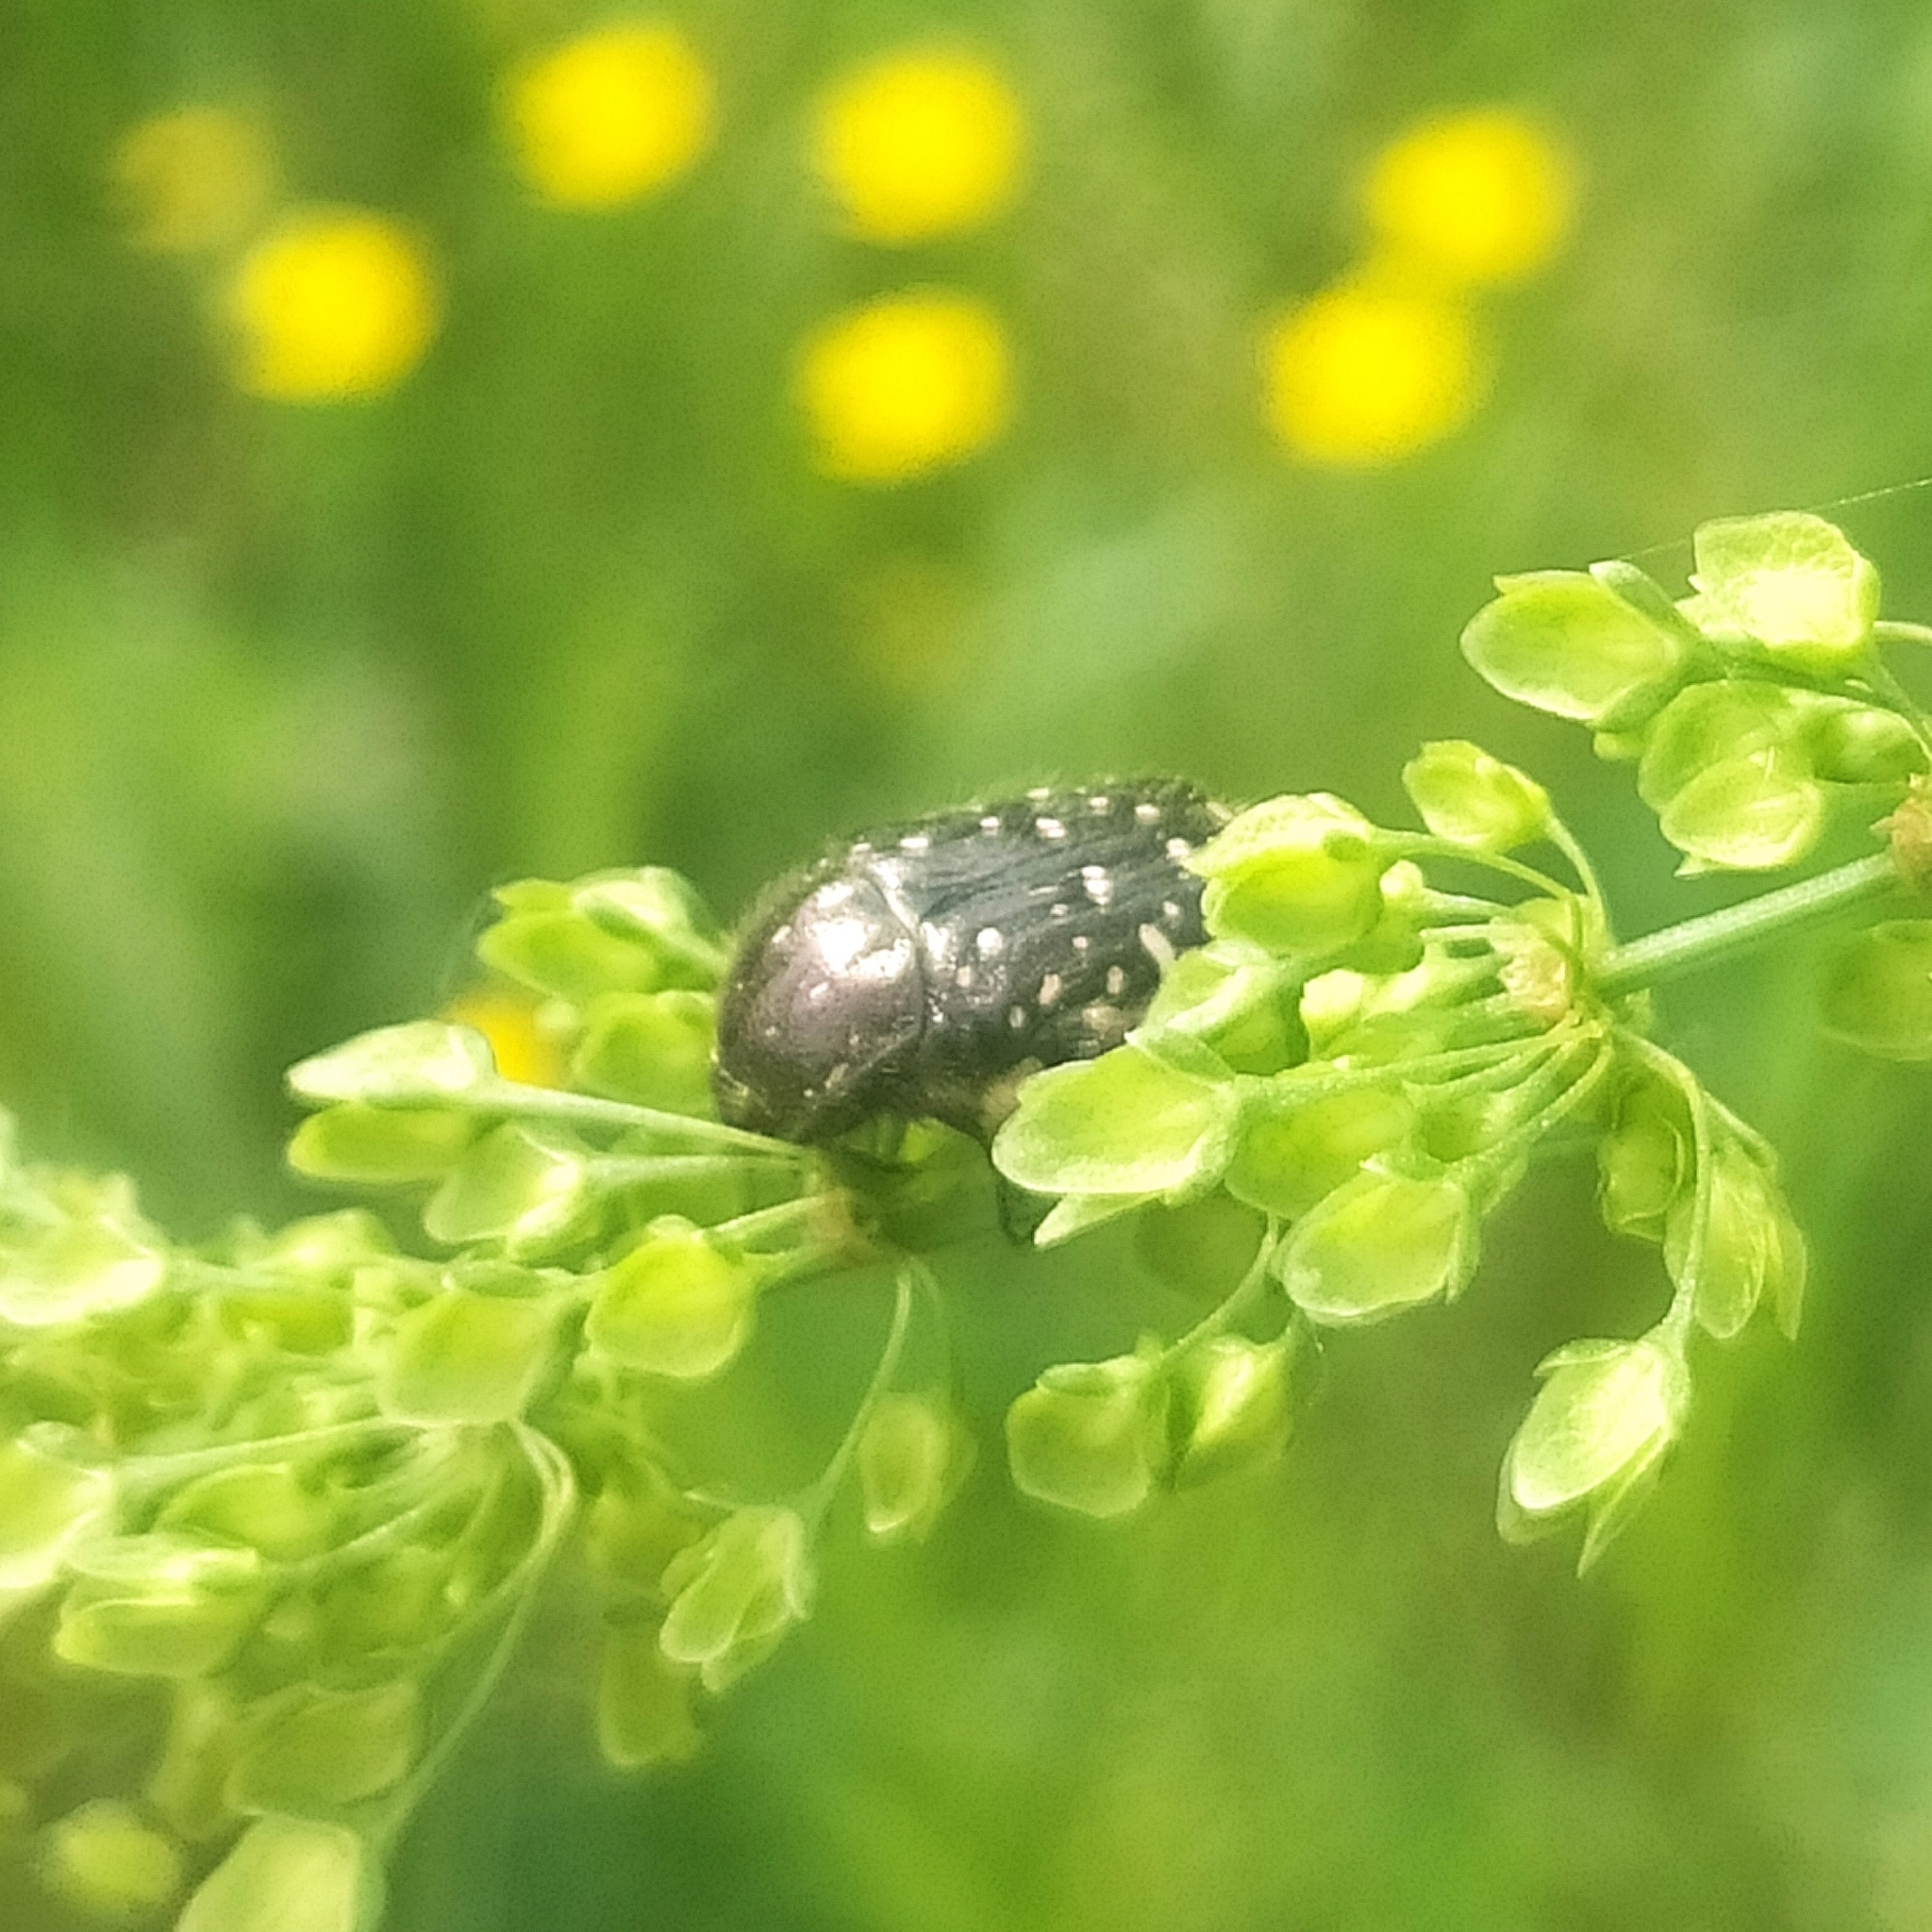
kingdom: Animalia
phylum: Arthropoda
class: Insecta
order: Coleoptera
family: Scarabaeidae
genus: Oxythyrea
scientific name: Oxythyrea funesta
